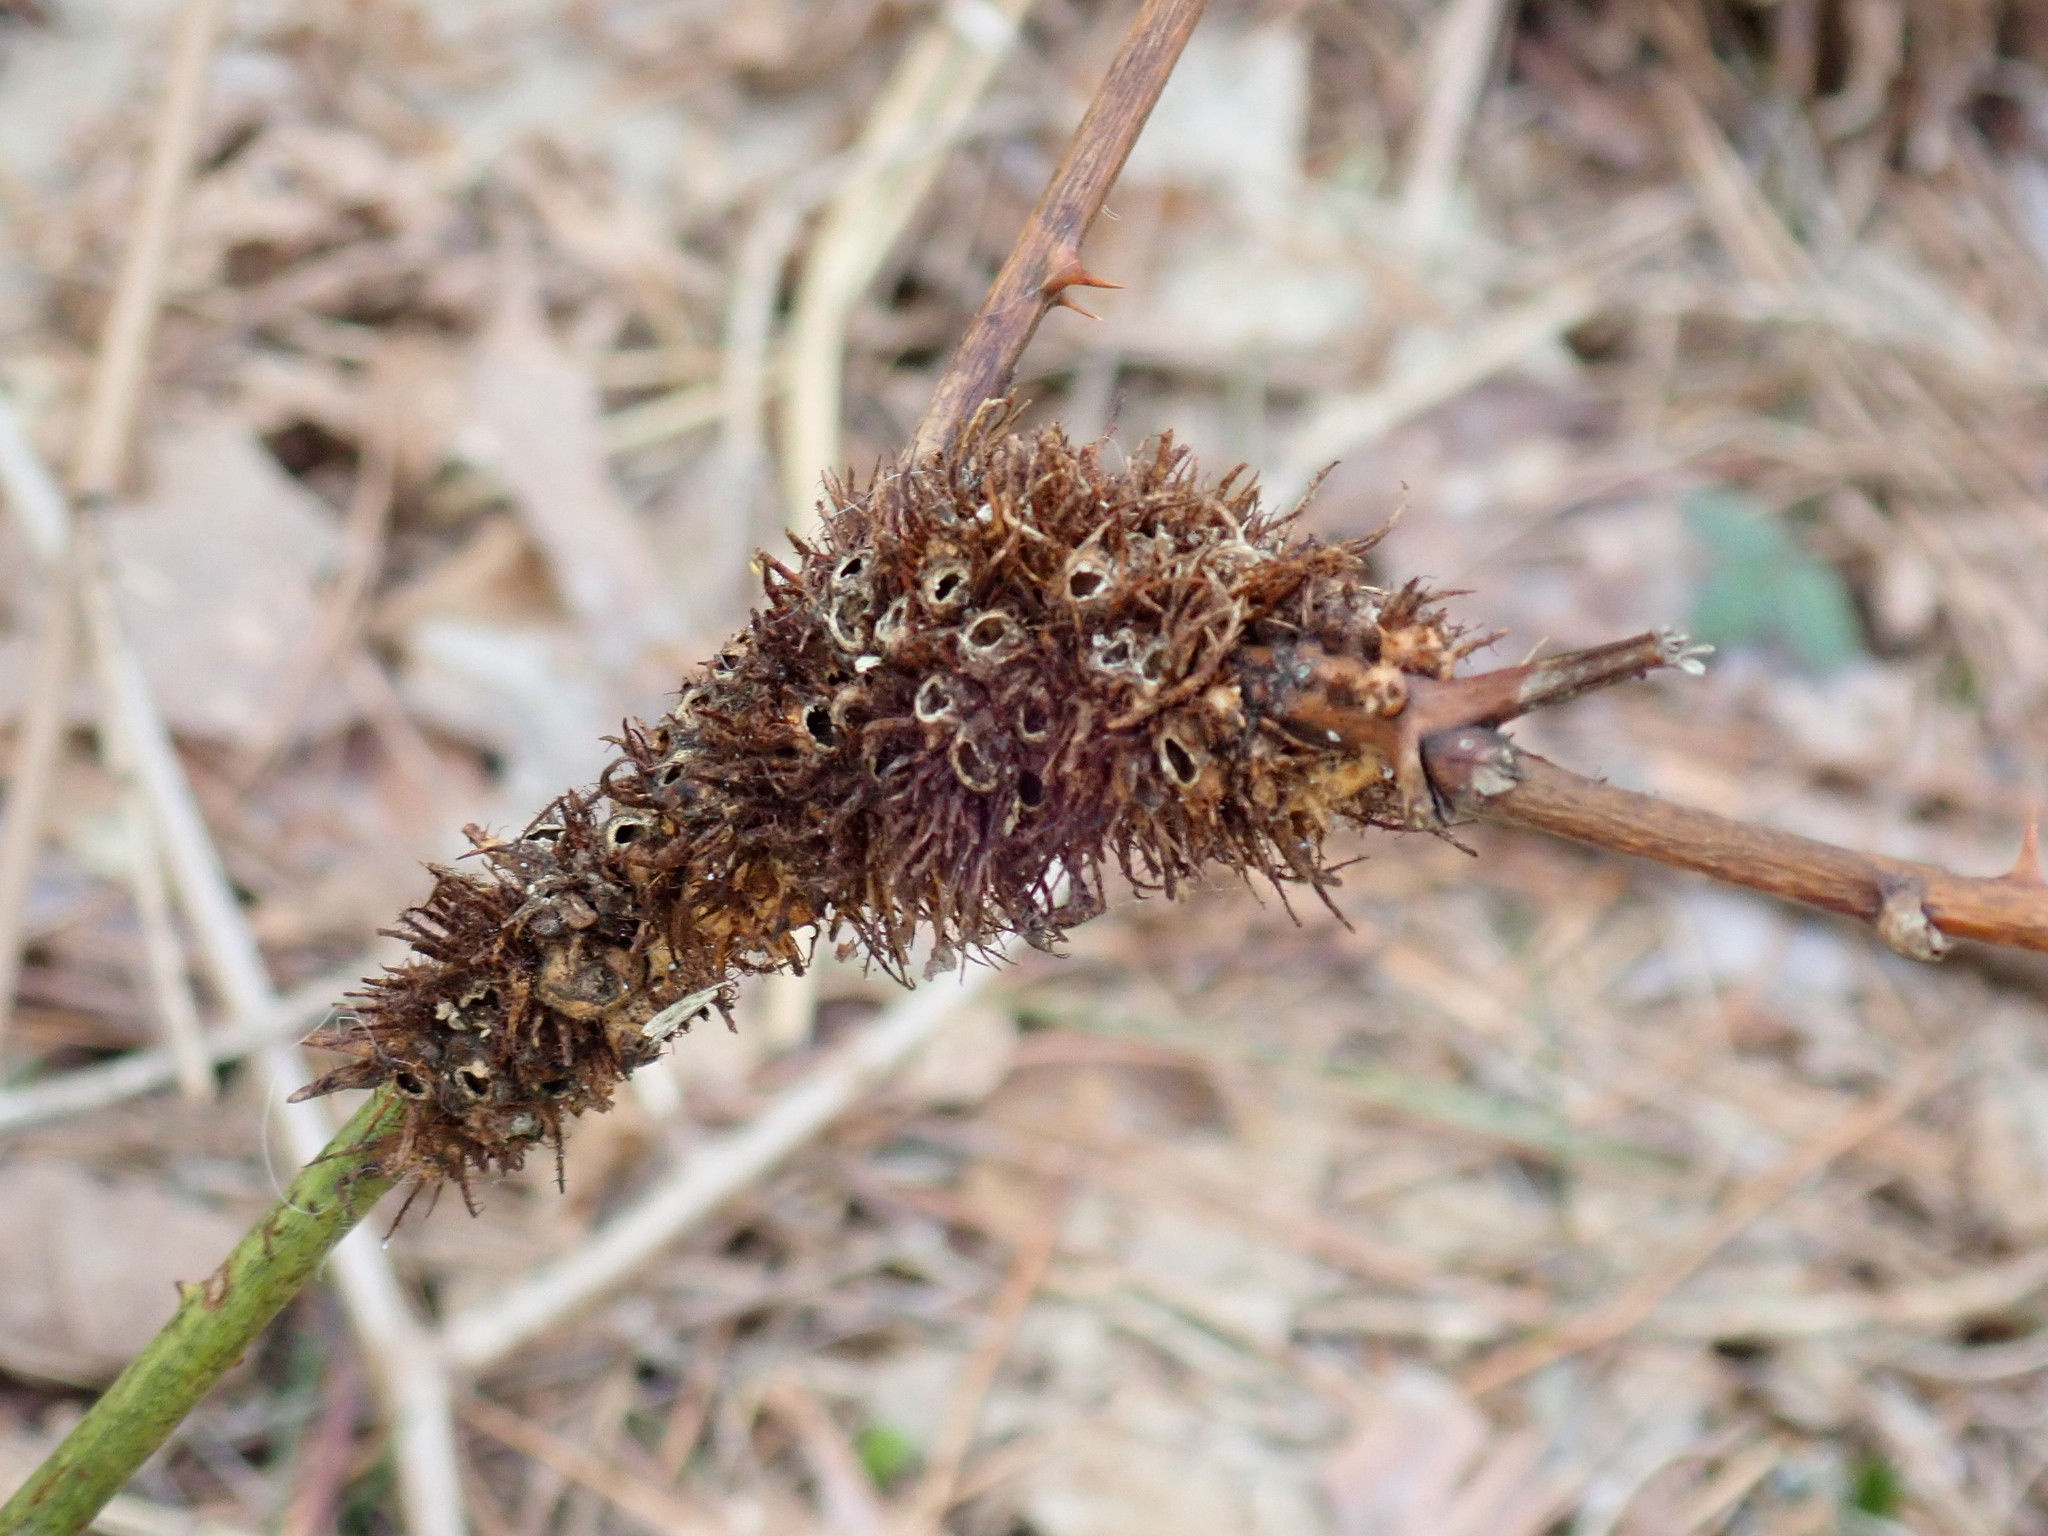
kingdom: Animalia
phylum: Arthropoda
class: Insecta
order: Hymenoptera
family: Cynipidae
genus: Diastrophus
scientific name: Diastrophus
